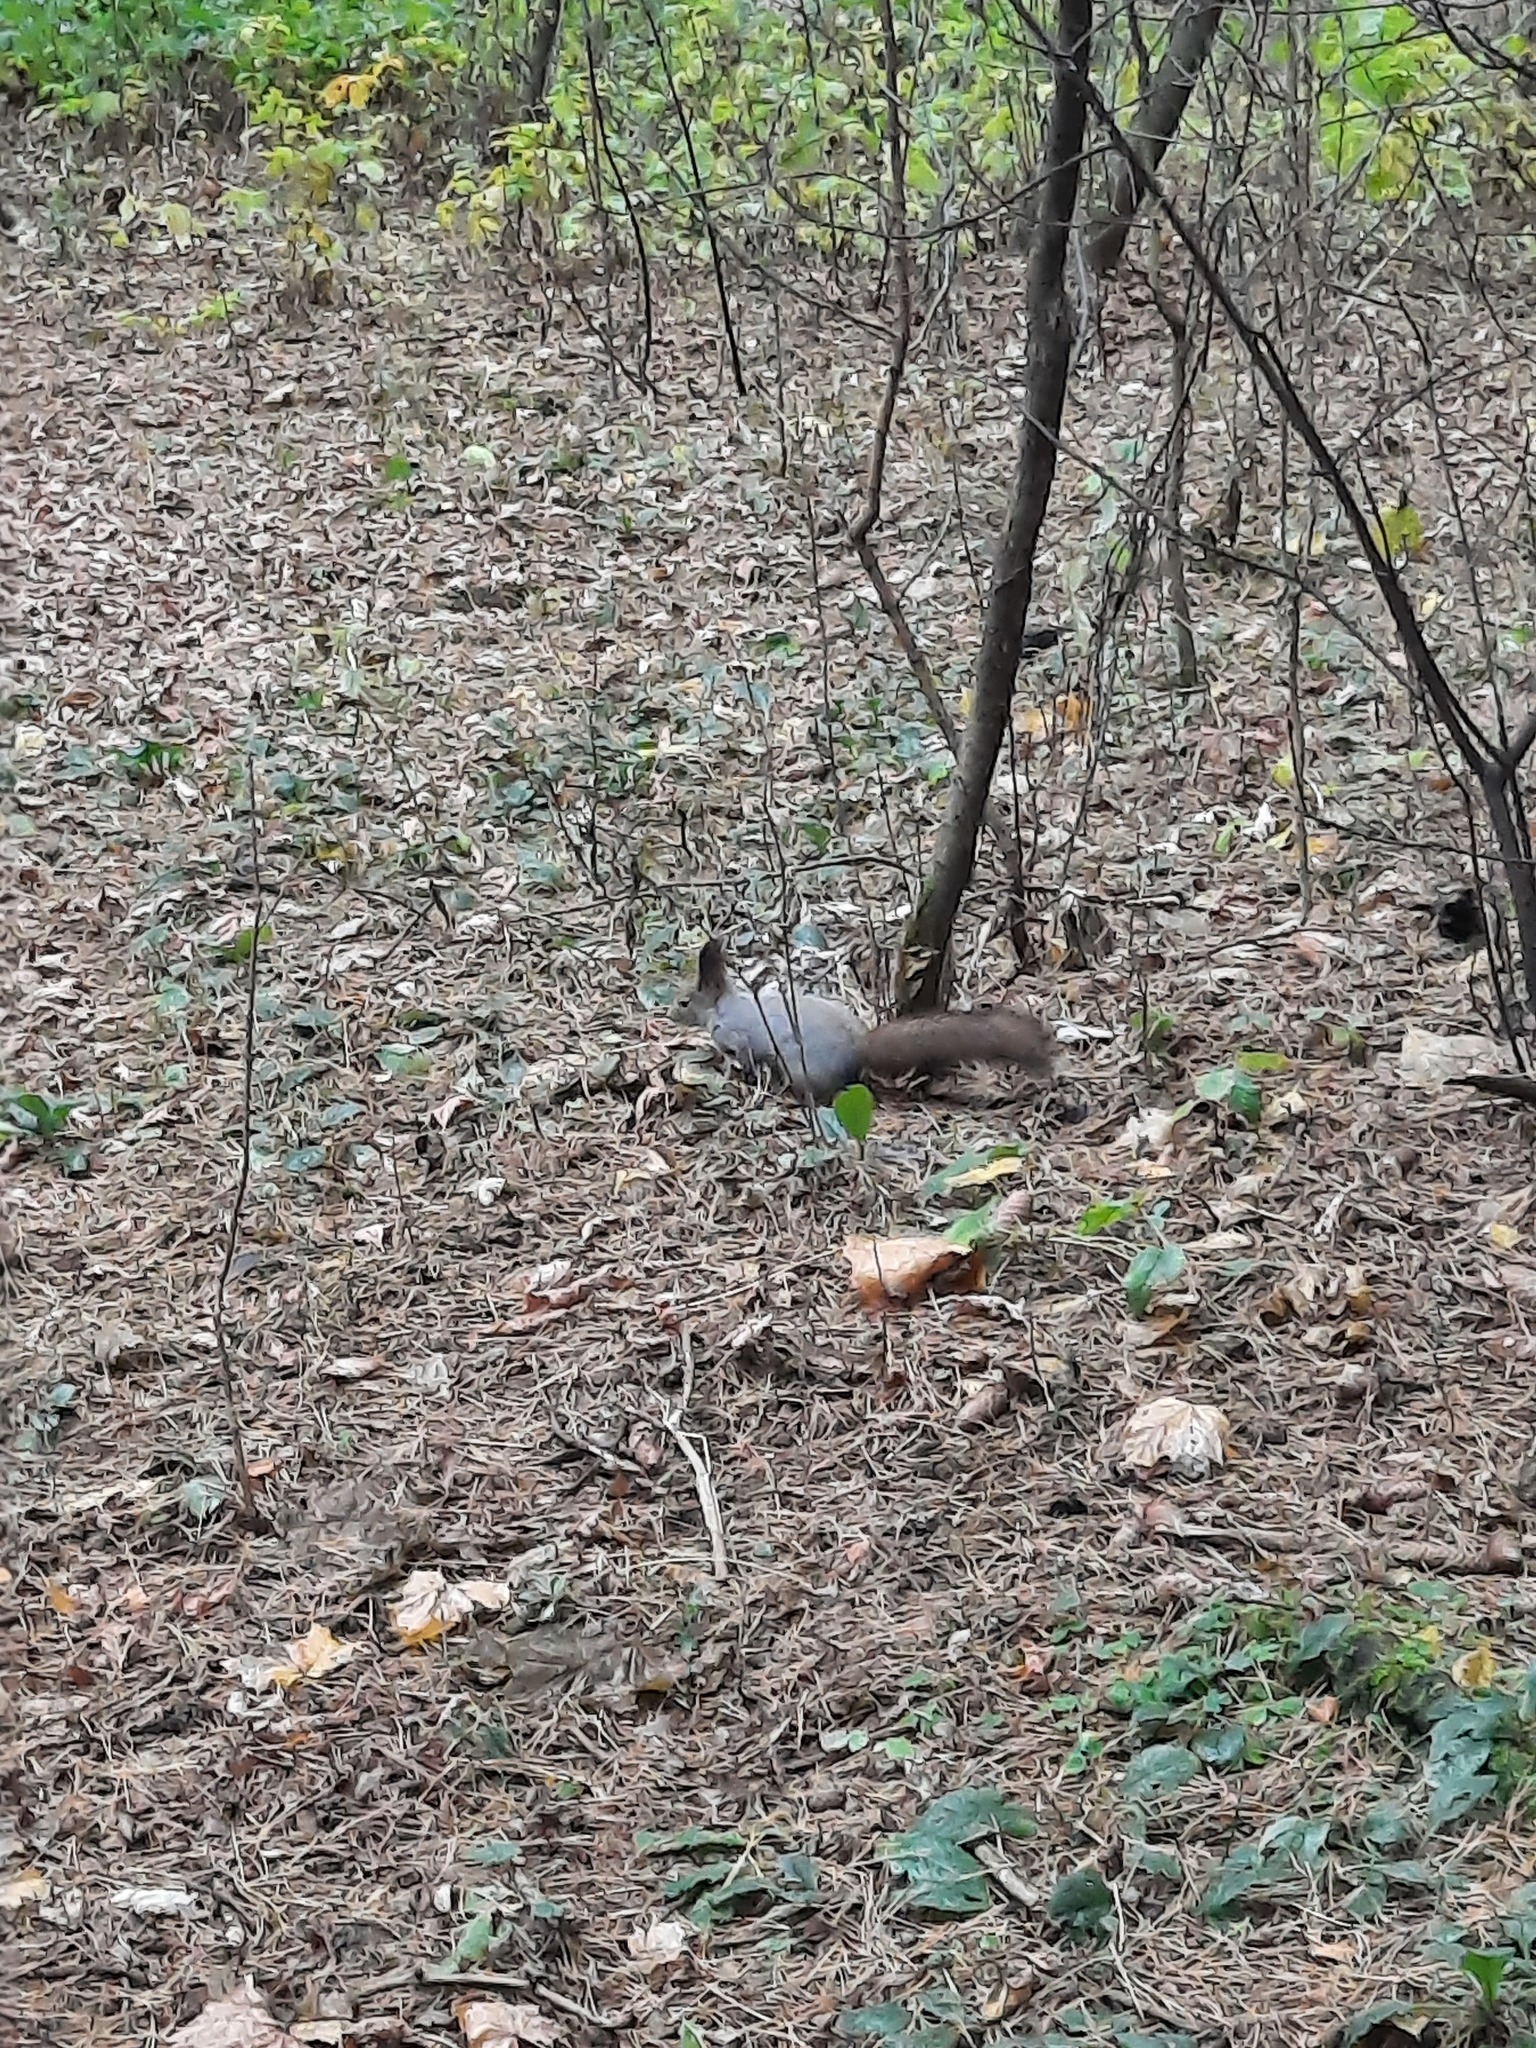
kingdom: Animalia
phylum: Chordata
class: Mammalia
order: Rodentia
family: Sciuridae
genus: Sciurus
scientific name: Sciurus vulgaris
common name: Eurasian red squirrel
